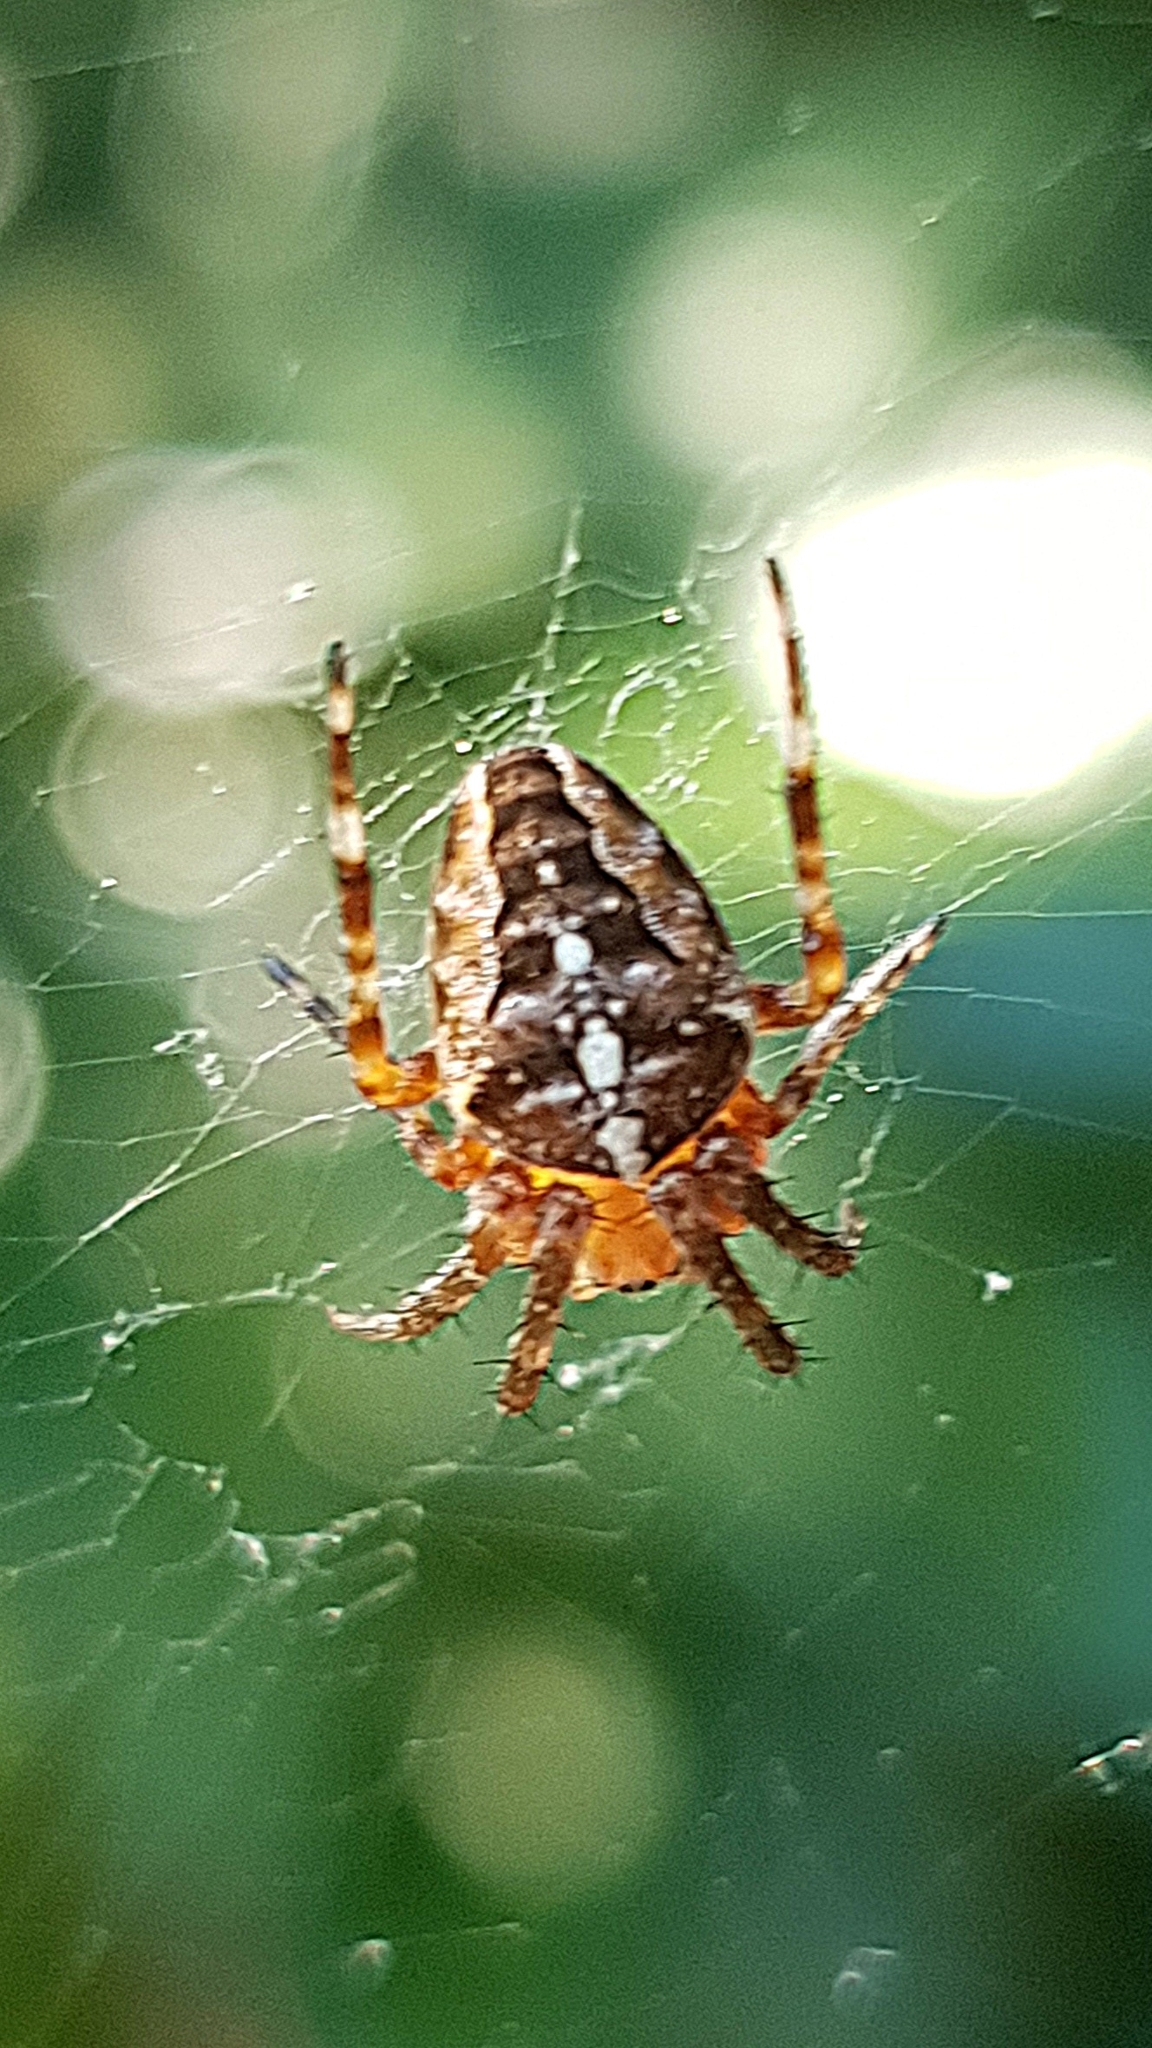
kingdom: Animalia
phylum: Arthropoda
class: Arachnida
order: Araneae
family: Araneidae
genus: Araneus
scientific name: Araneus diadematus
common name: Cross orbweaver
